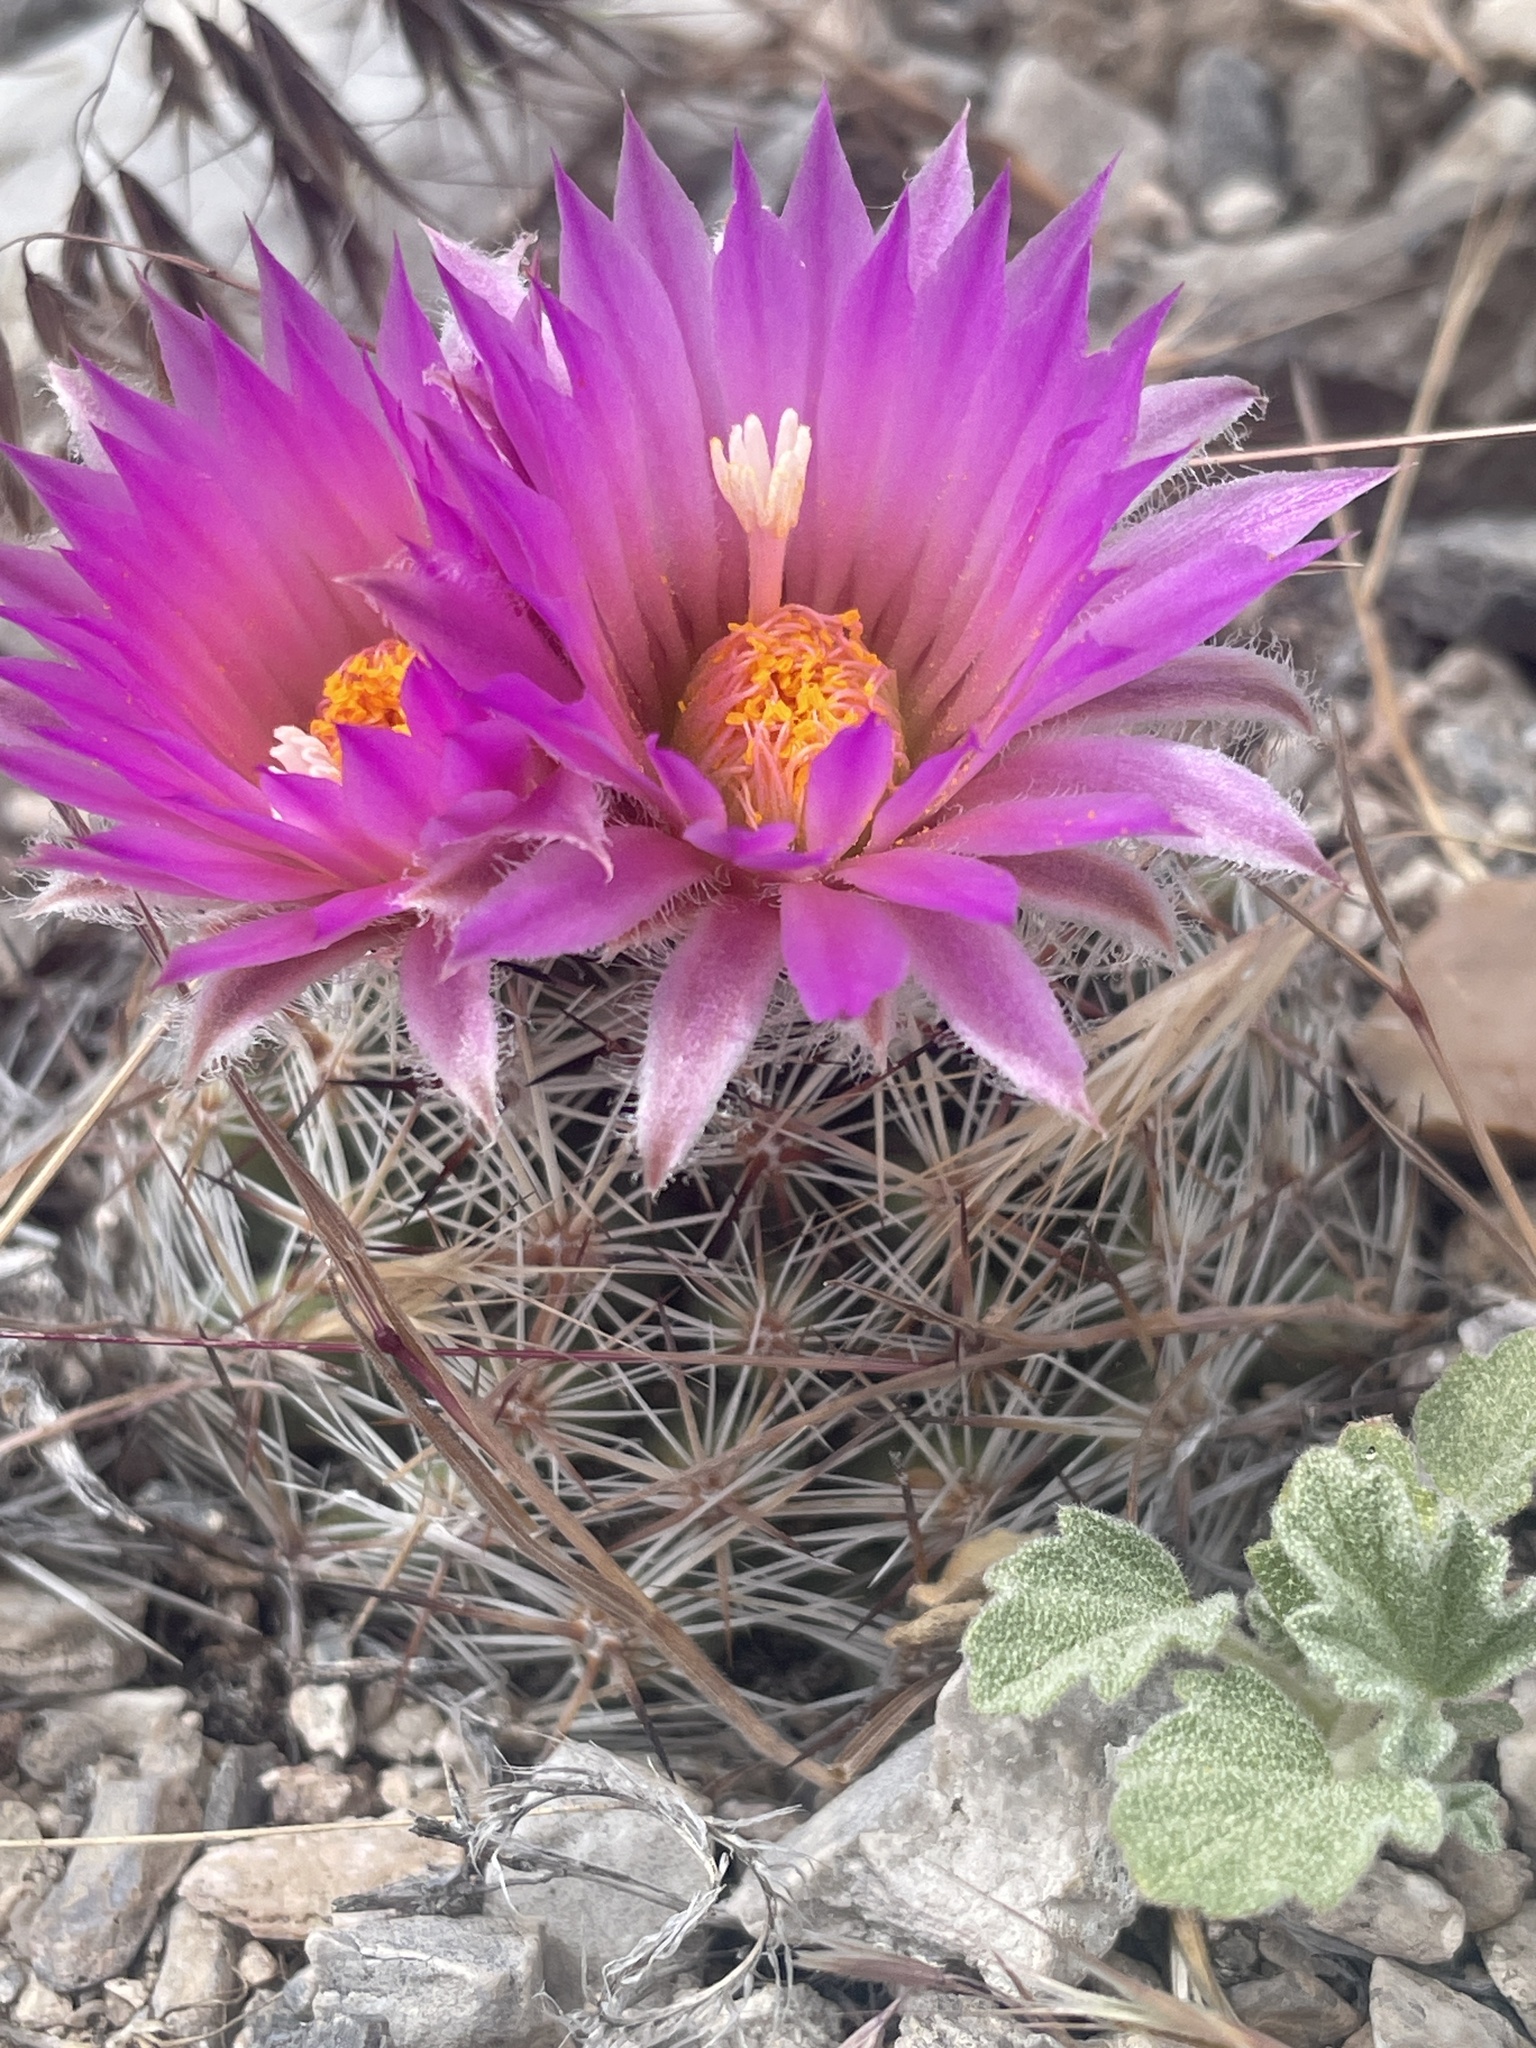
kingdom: Plantae
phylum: Tracheophyta
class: Magnoliopsida
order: Caryophyllales
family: Cactaceae
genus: Pelecyphora
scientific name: Pelecyphora vivipara
